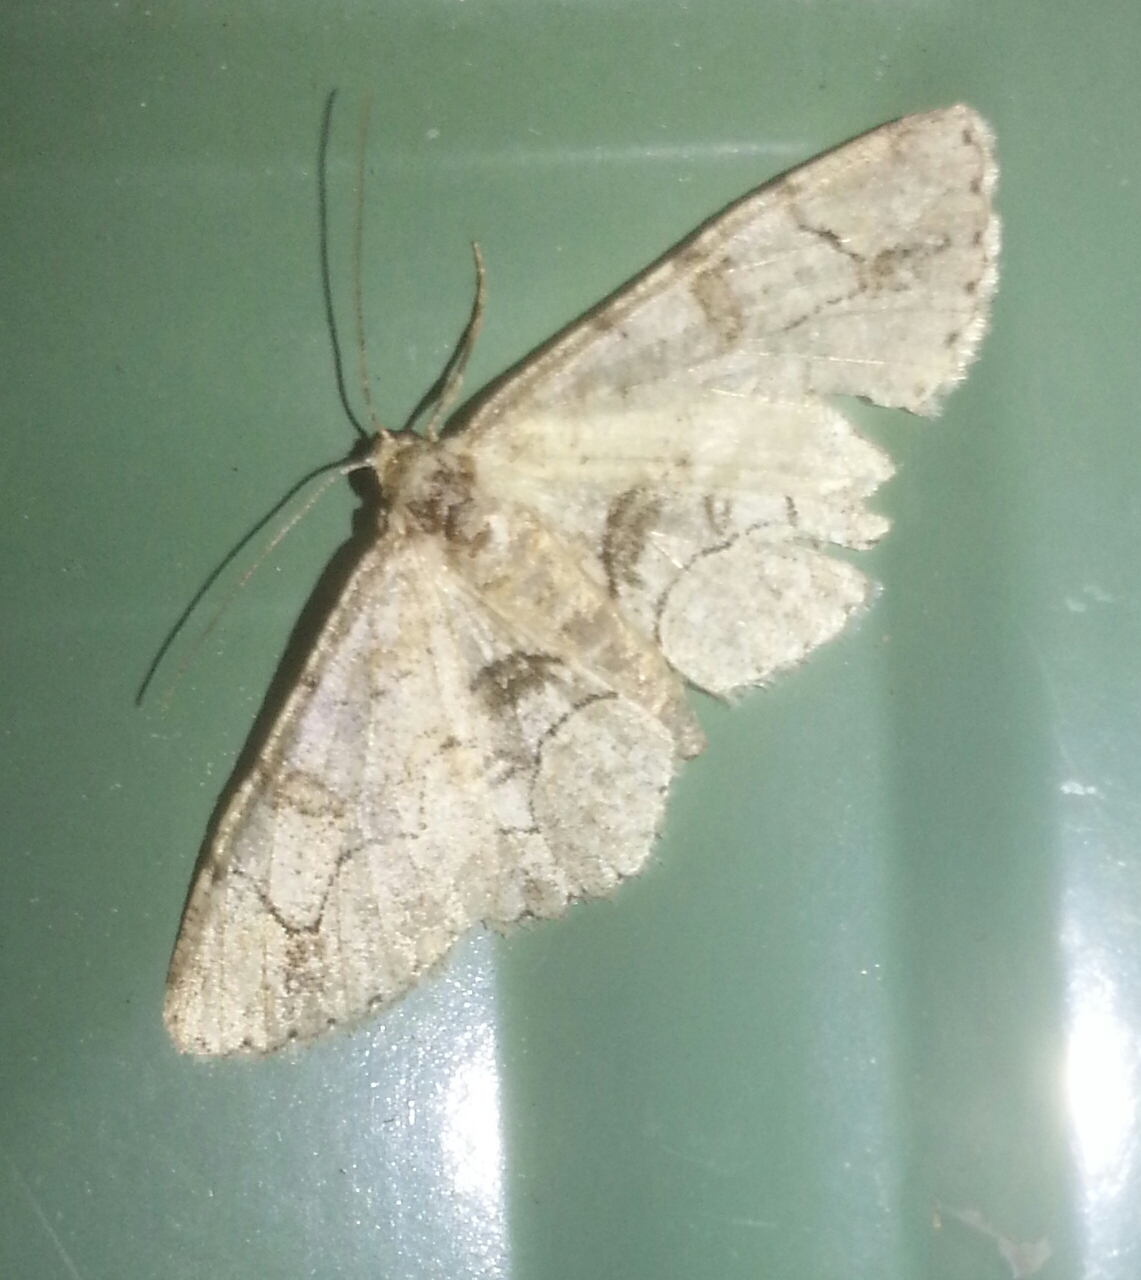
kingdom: Animalia
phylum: Arthropoda
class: Insecta
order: Lepidoptera
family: Geometridae
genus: Iridopsis
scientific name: Iridopsis larvaria
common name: Bent-line gray
